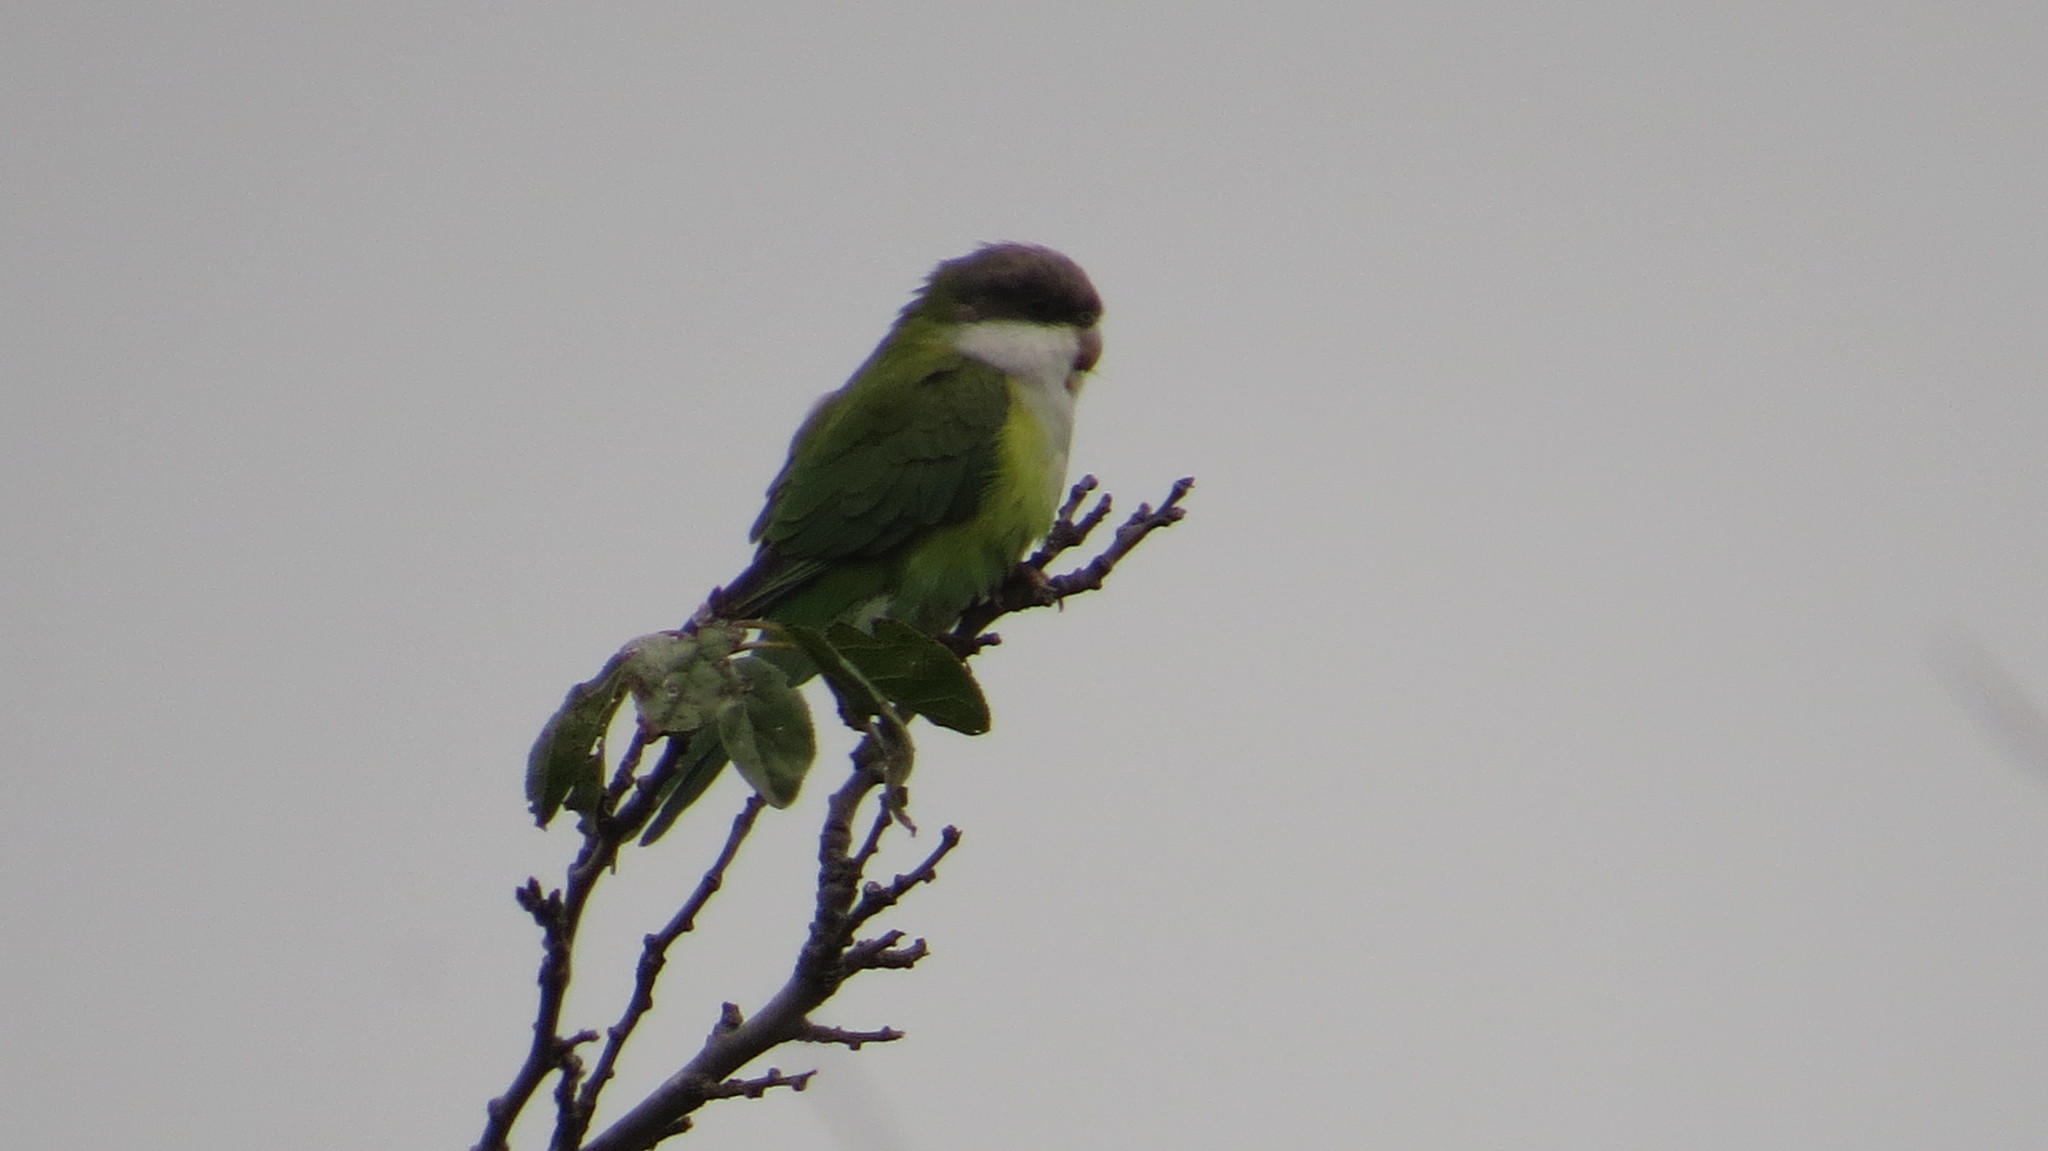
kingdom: Animalia
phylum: Chordata
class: Aves
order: Psittaciformes
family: Psittacidae
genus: Psilopsiagon
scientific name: Psilopsiagon aymara
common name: Grey-hooded parakeet
